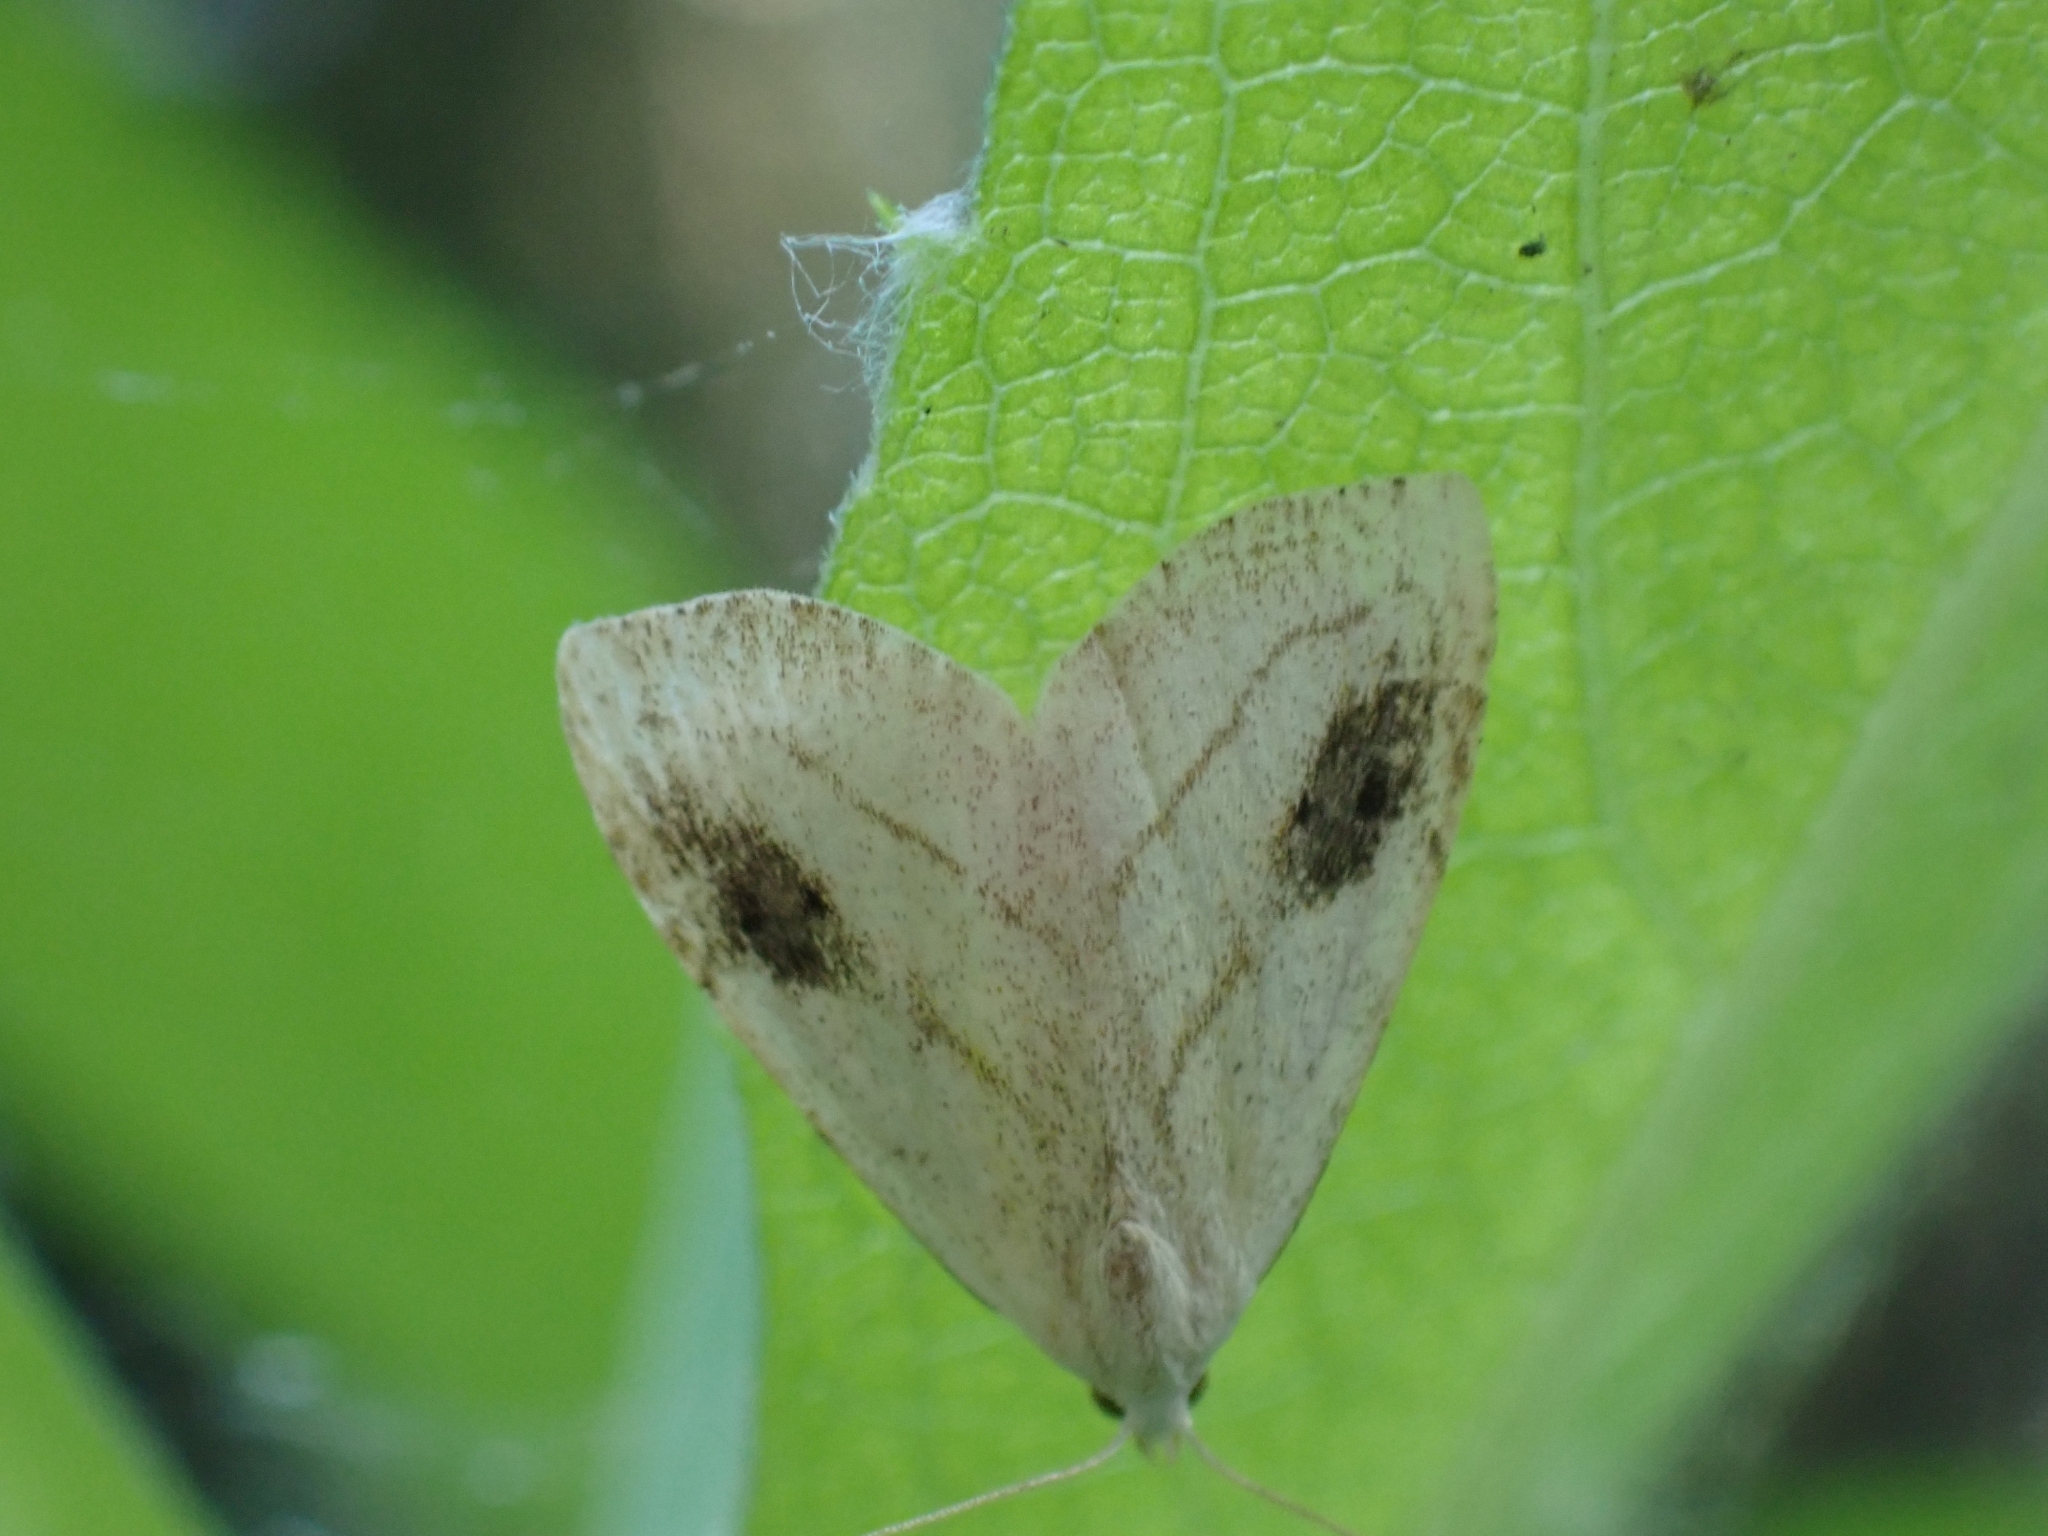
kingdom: Animalia
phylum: Arthropoda
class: Insecta
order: Lepidoptera
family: Erebidae
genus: Rivula
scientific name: Rivula propinqualis
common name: Spotted grass moth
